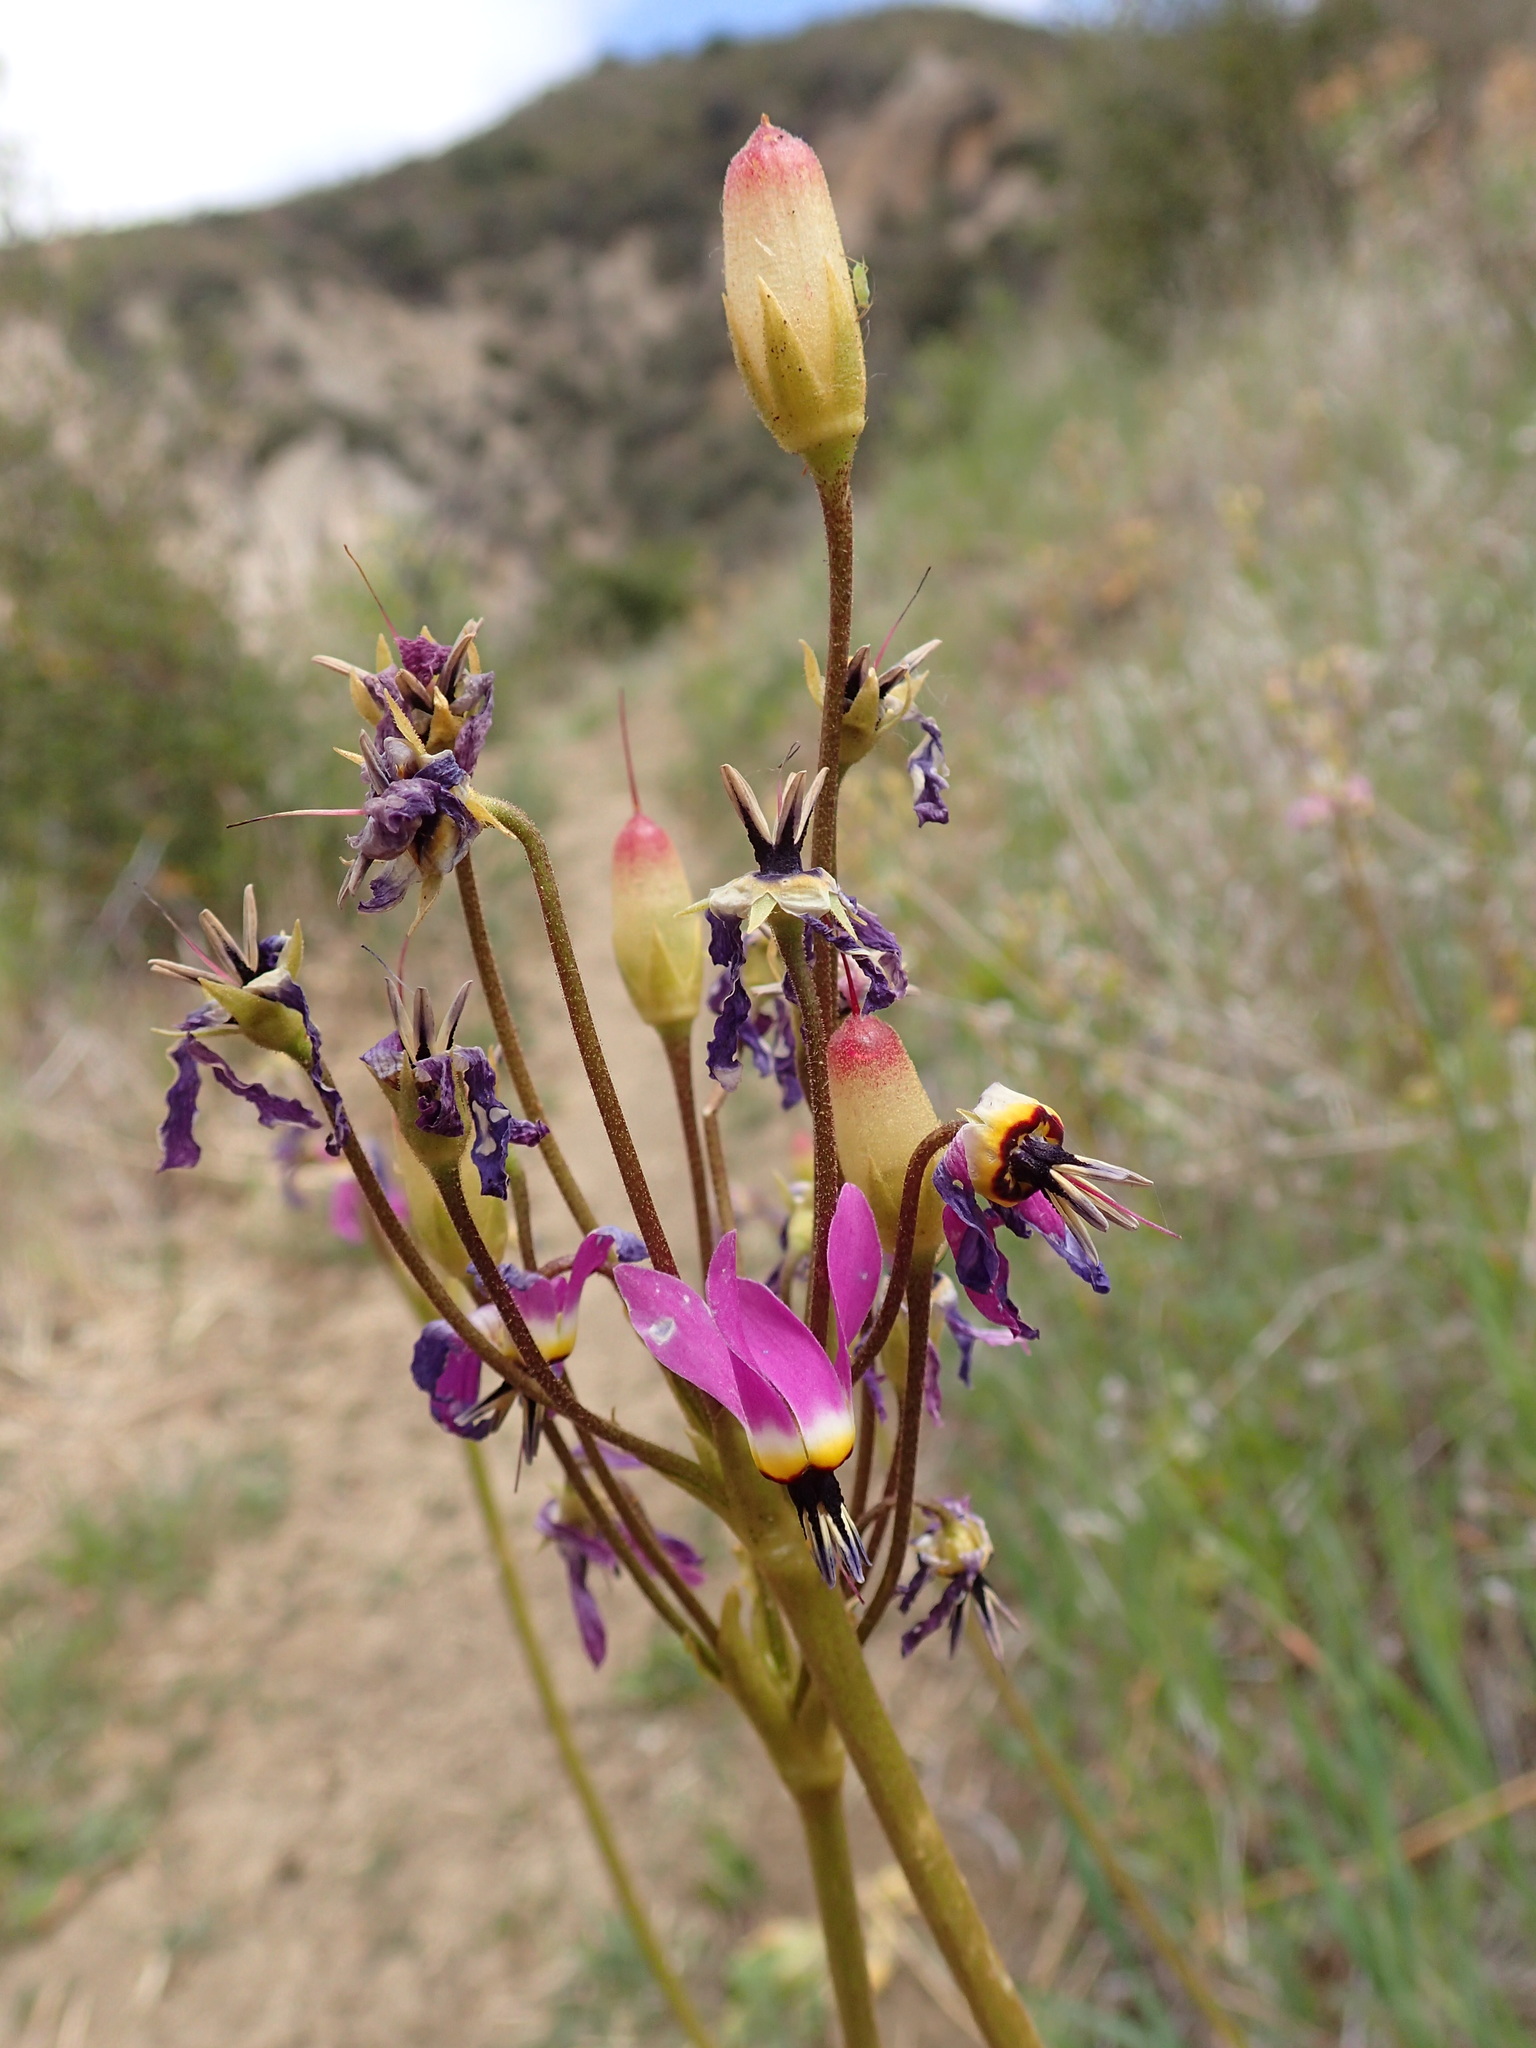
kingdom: Plantae
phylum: Tracheophyta
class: Magnoliopsida
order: Ericales
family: Primulaceae
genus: Dodecatheon
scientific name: Dodecatheon clevelandii
